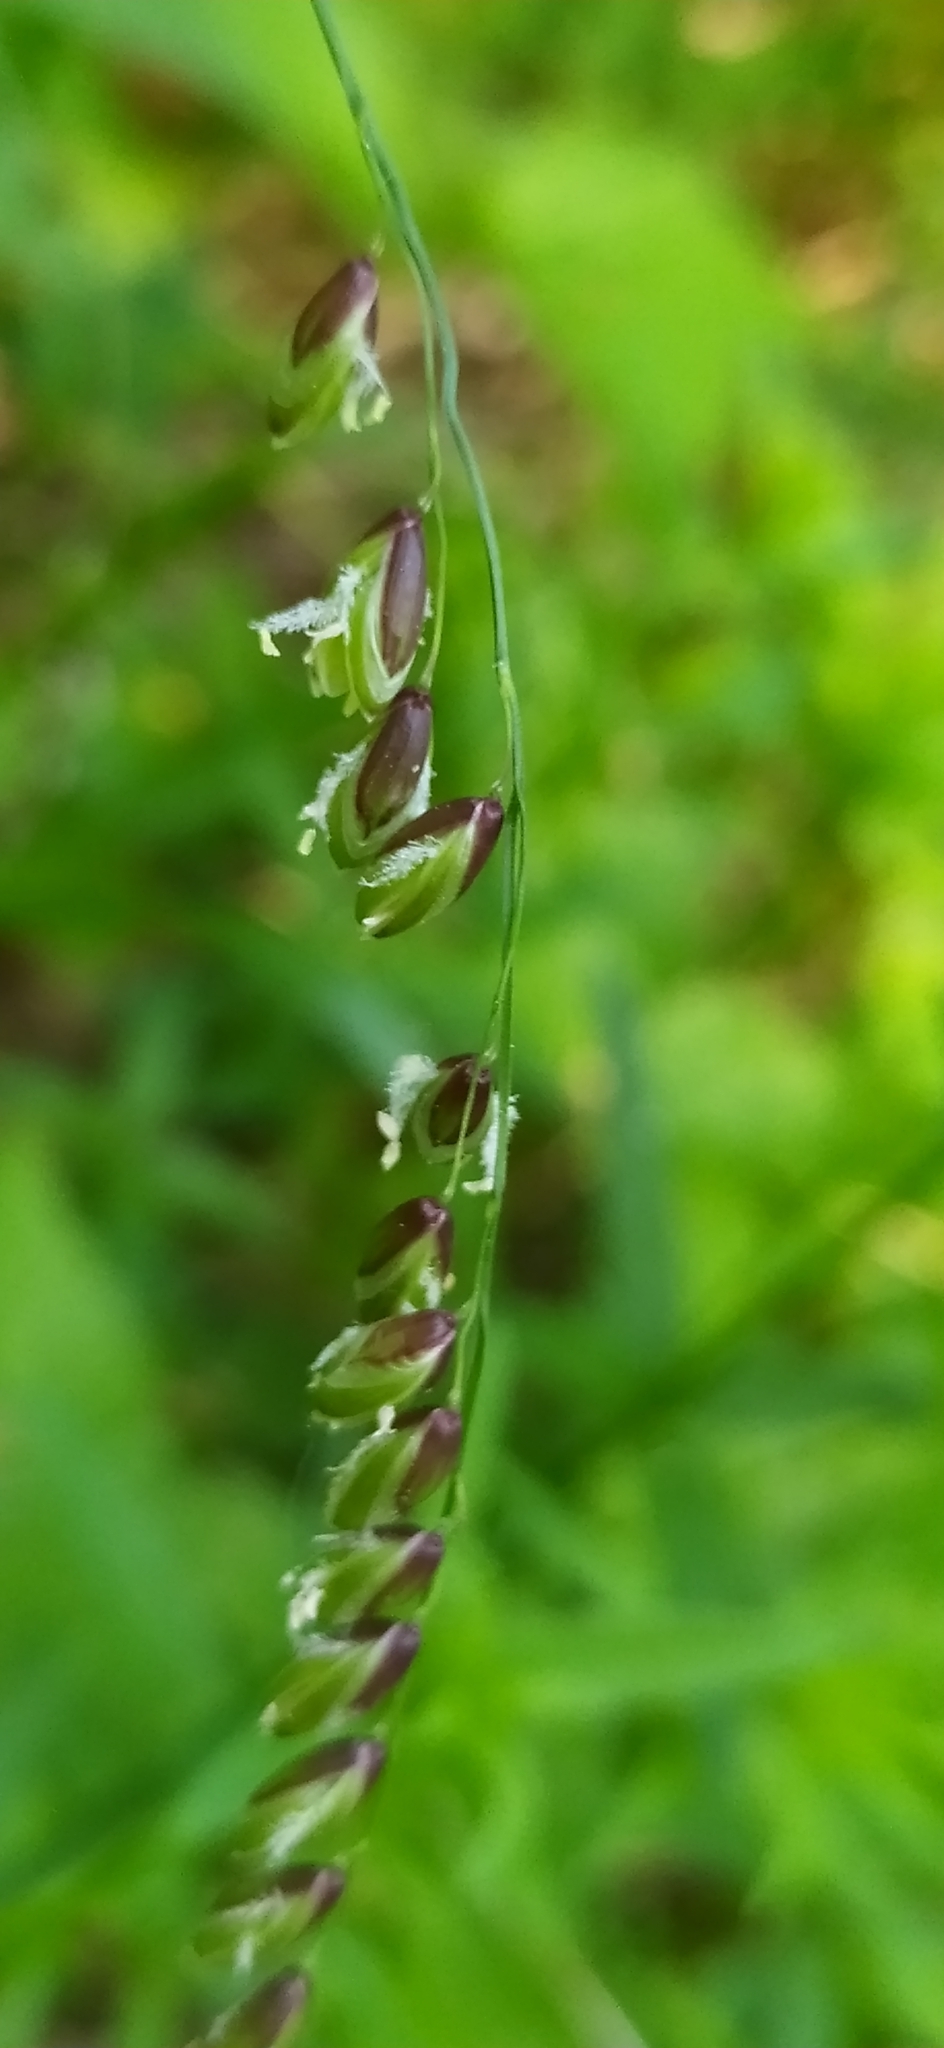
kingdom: Plantae
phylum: Tracheophyta
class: Liliopsida
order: Poales
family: Poaceae
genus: Melica
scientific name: Melica nutans
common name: Mountain melick
